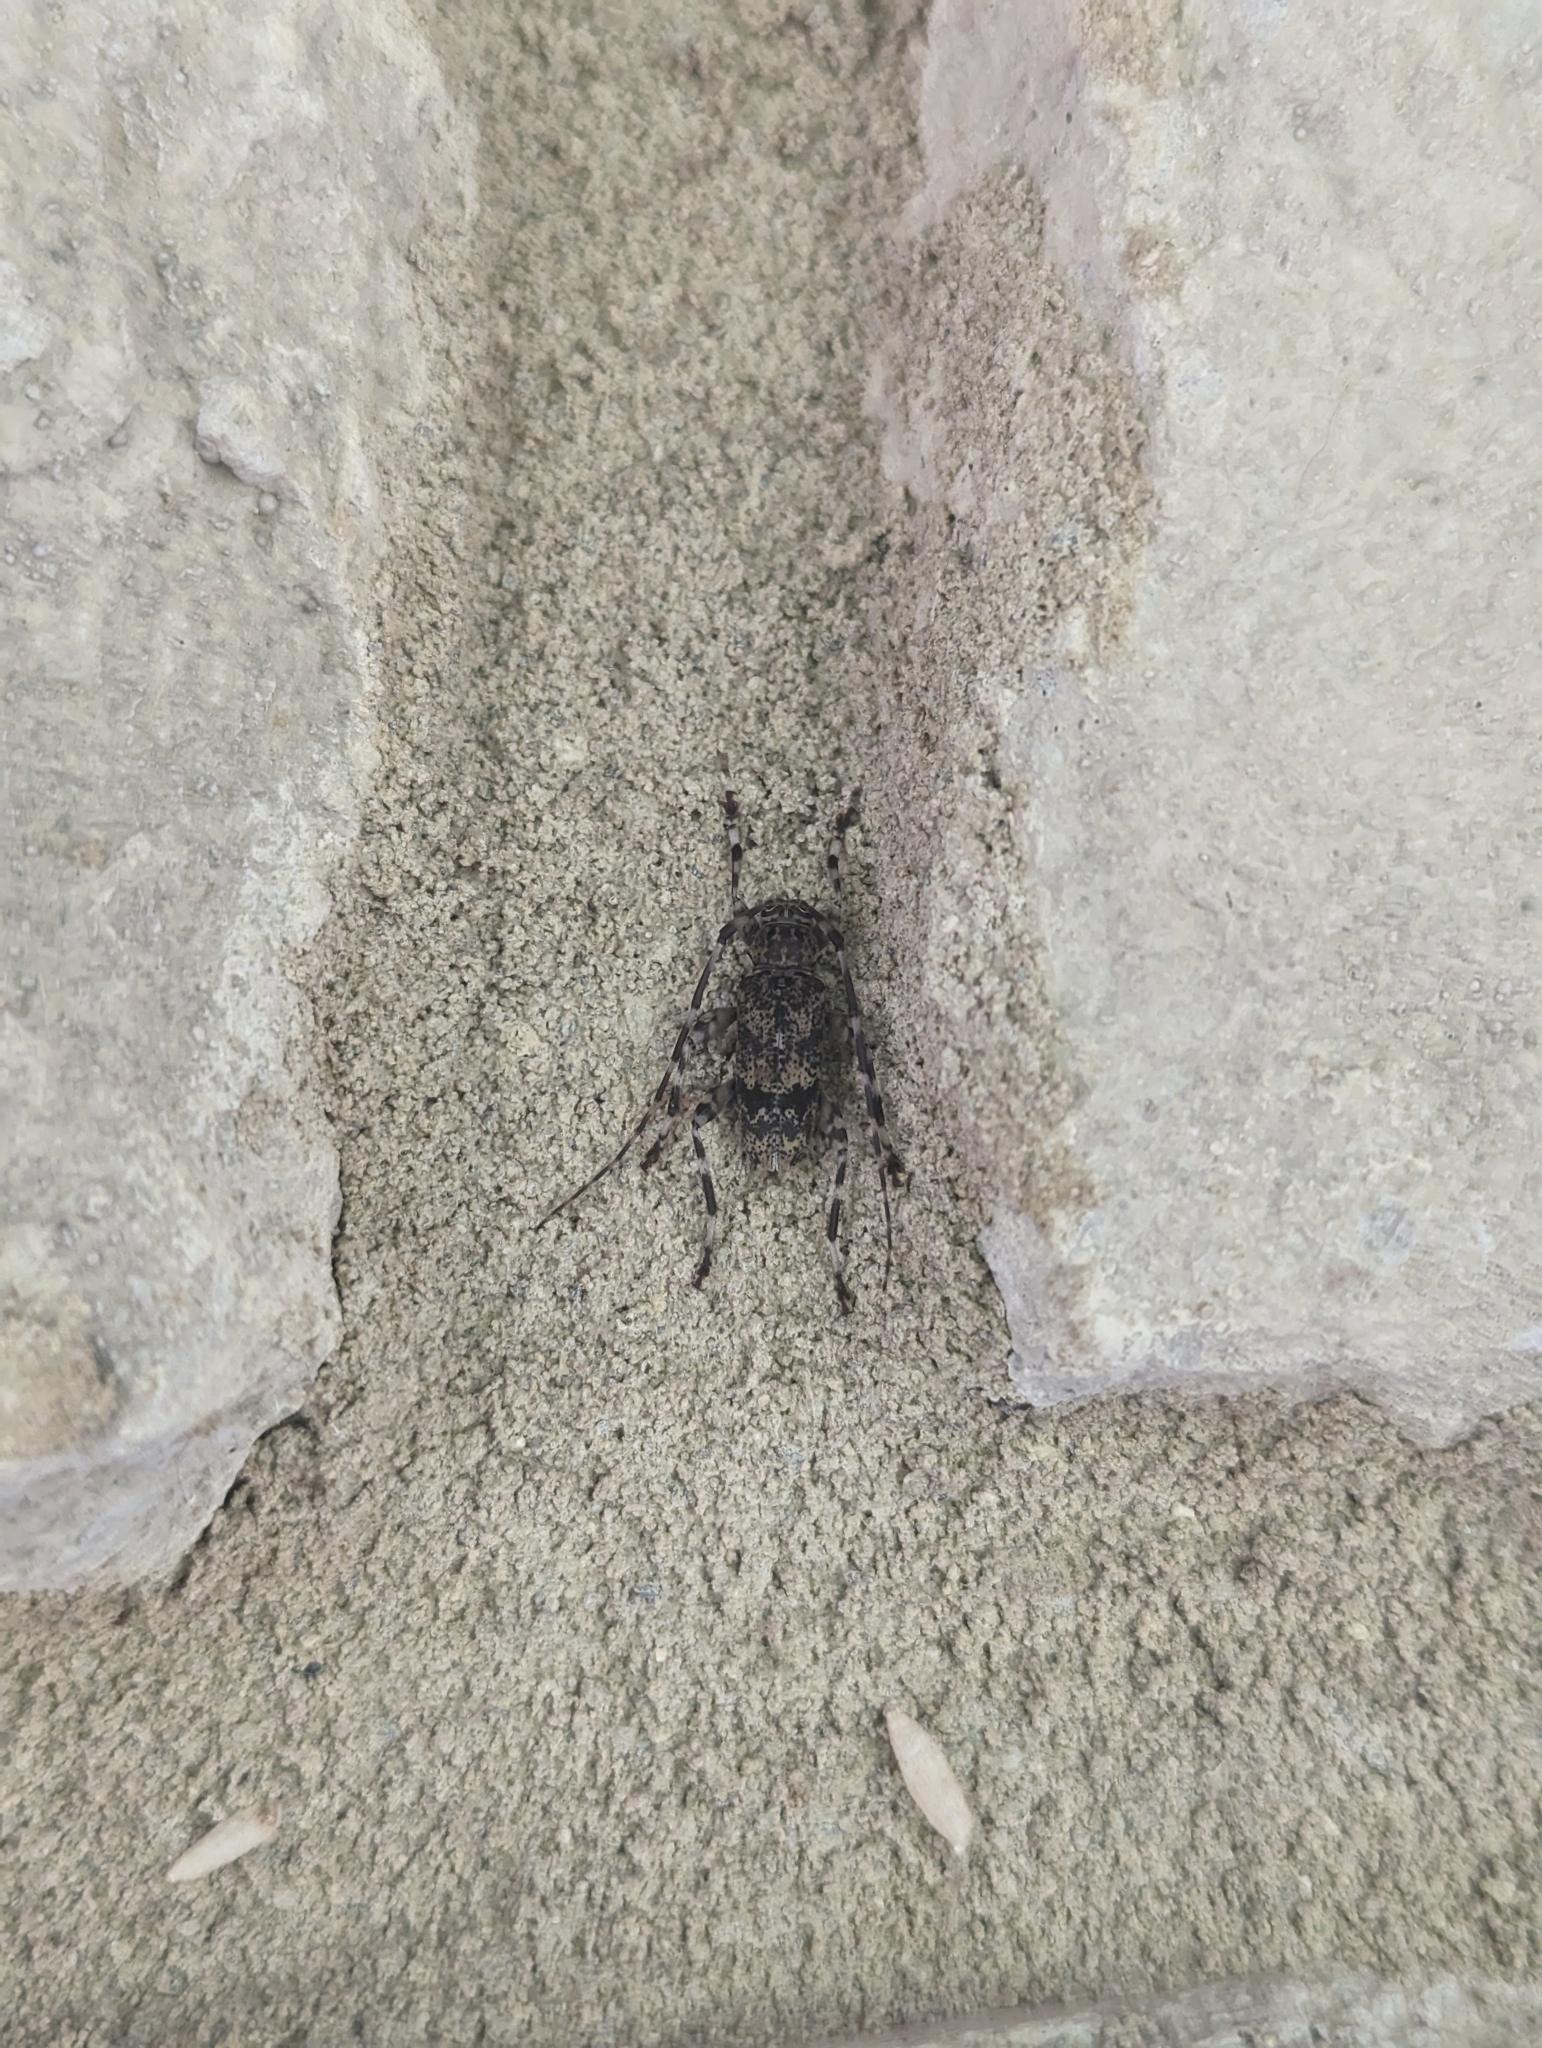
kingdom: Animalia
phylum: Arthropoda
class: Insecta
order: Coleoptera
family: Cerambycidae
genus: Graphisurus
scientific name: Graphisurus fasciatus
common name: Banded graphisurus
